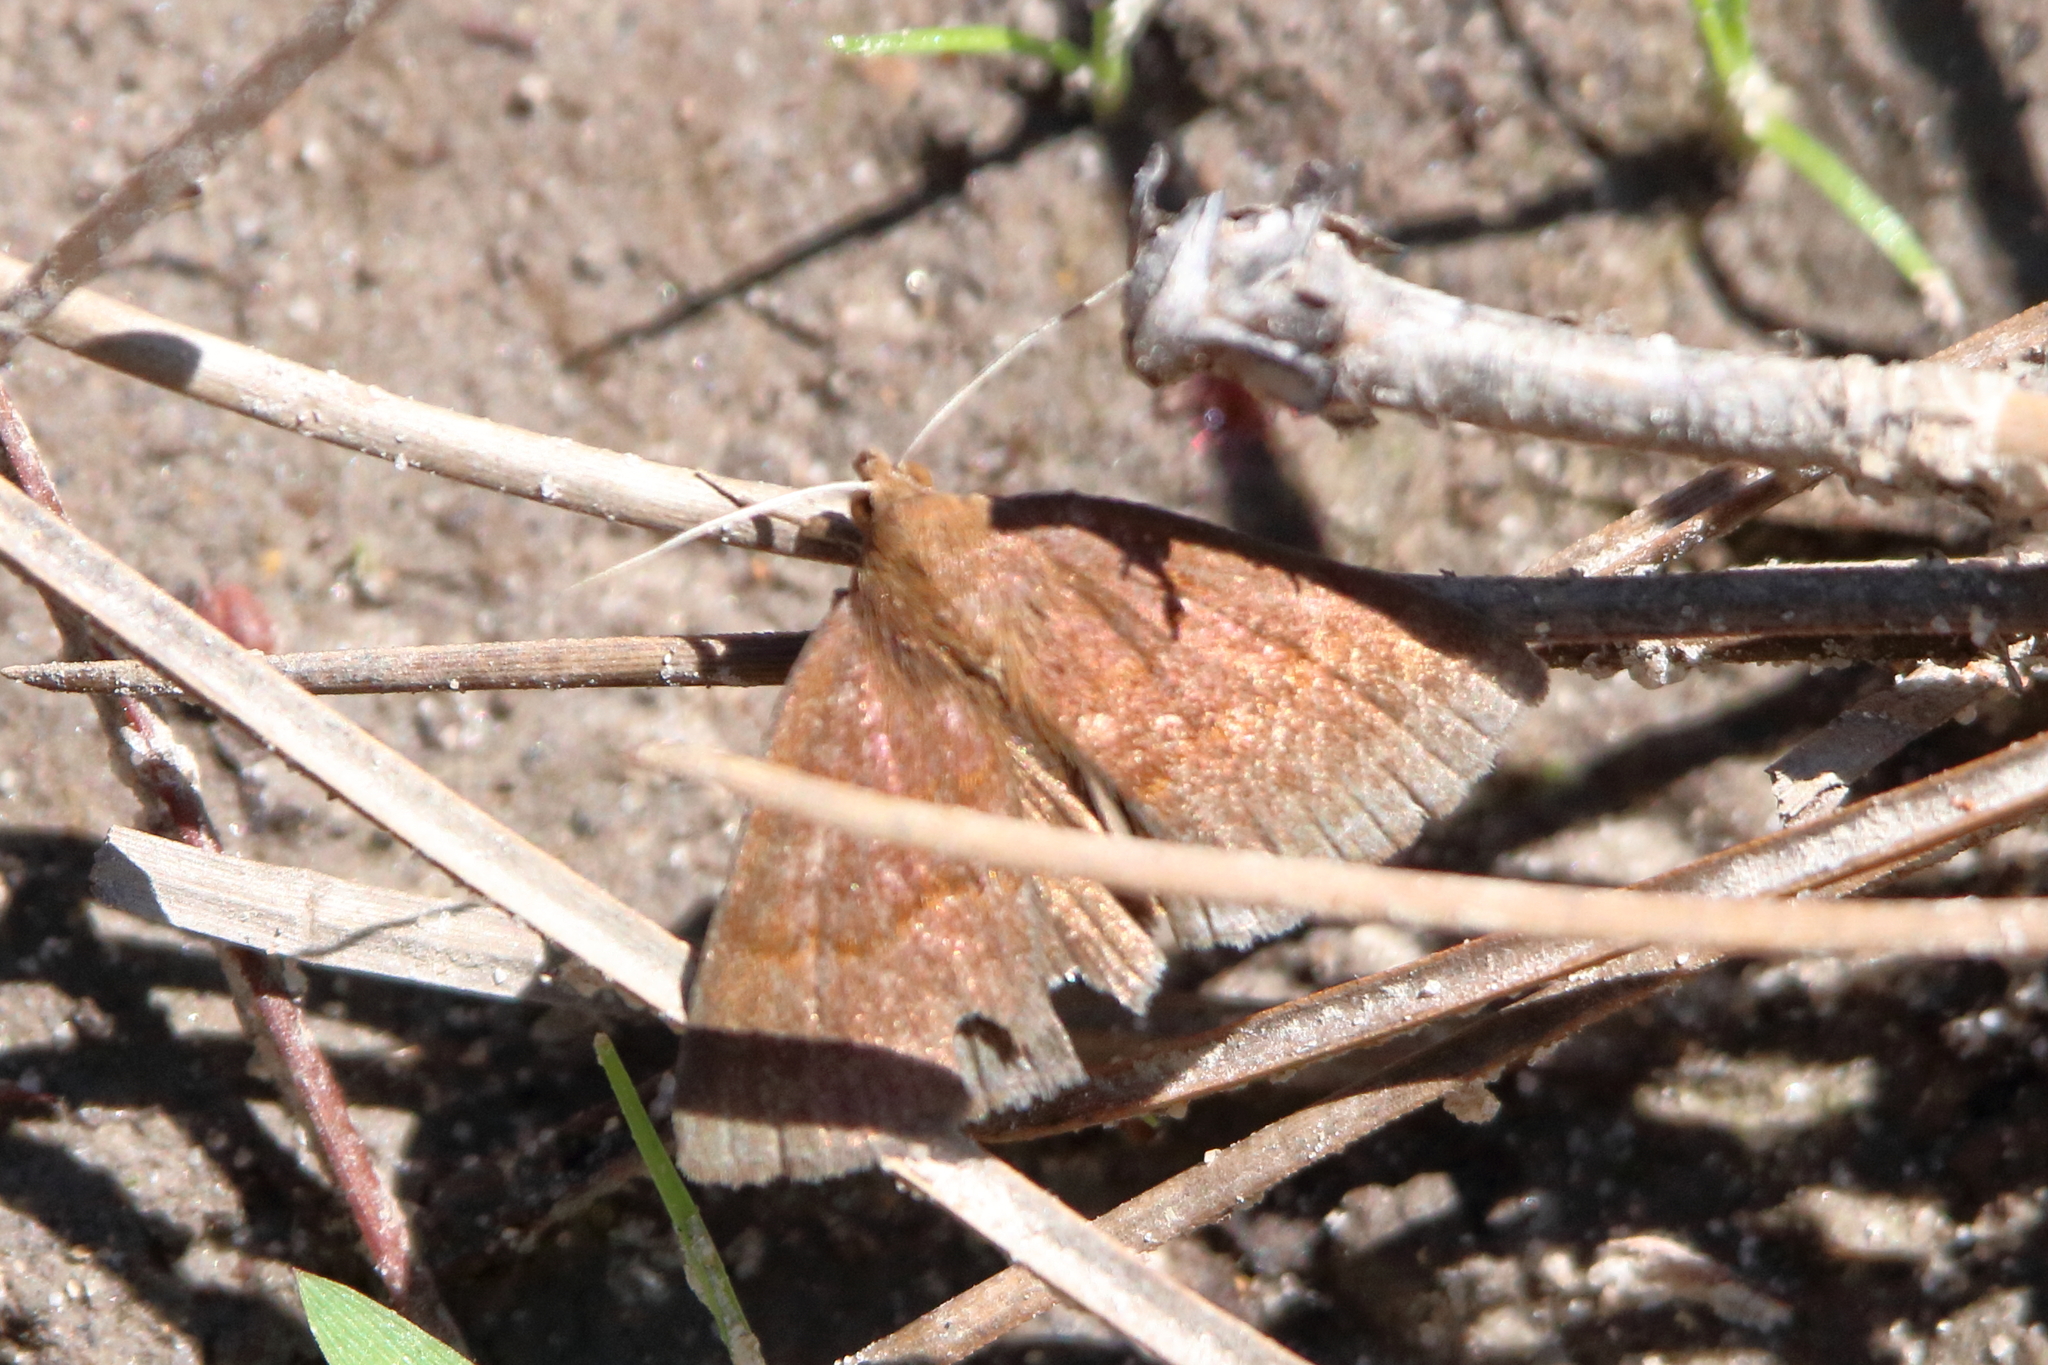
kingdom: Animalia
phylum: Arthropoda
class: Insecta
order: Lepidoptera
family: Erebidae
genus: Argyrostrotis
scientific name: Argyrostrotis deleta
